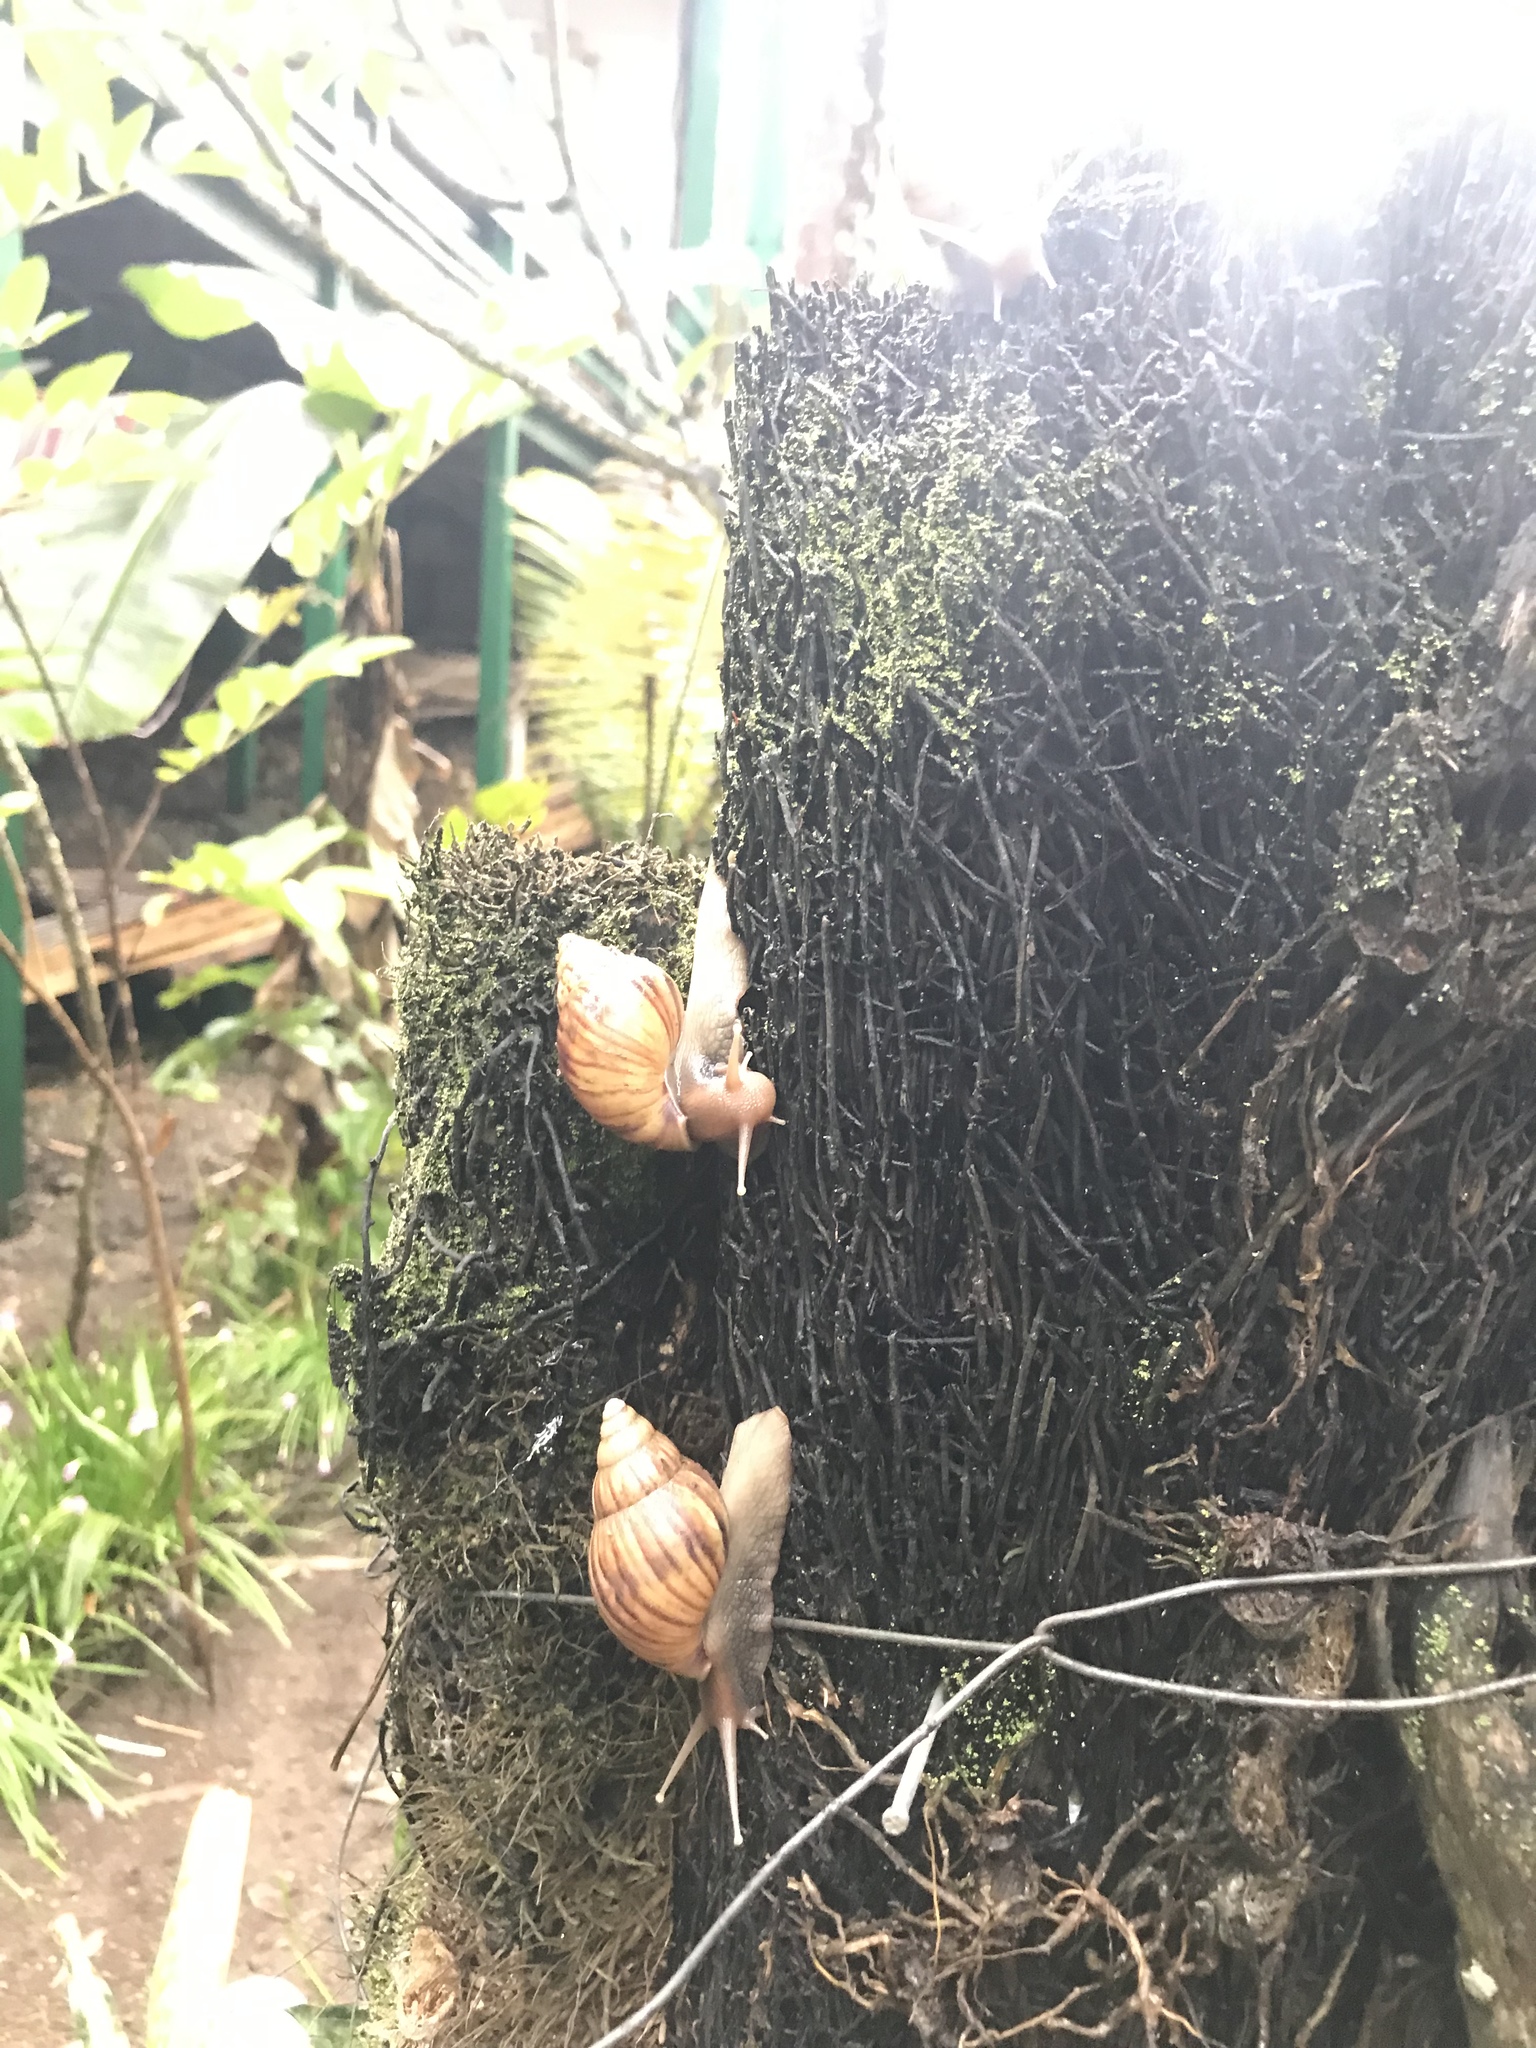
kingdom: Animalia
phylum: Mollusca
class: Gastropoda
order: Stylommatophora
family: Achatinidae
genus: Lissachatina
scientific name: Lissachatina fulica
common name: Giant african snail
